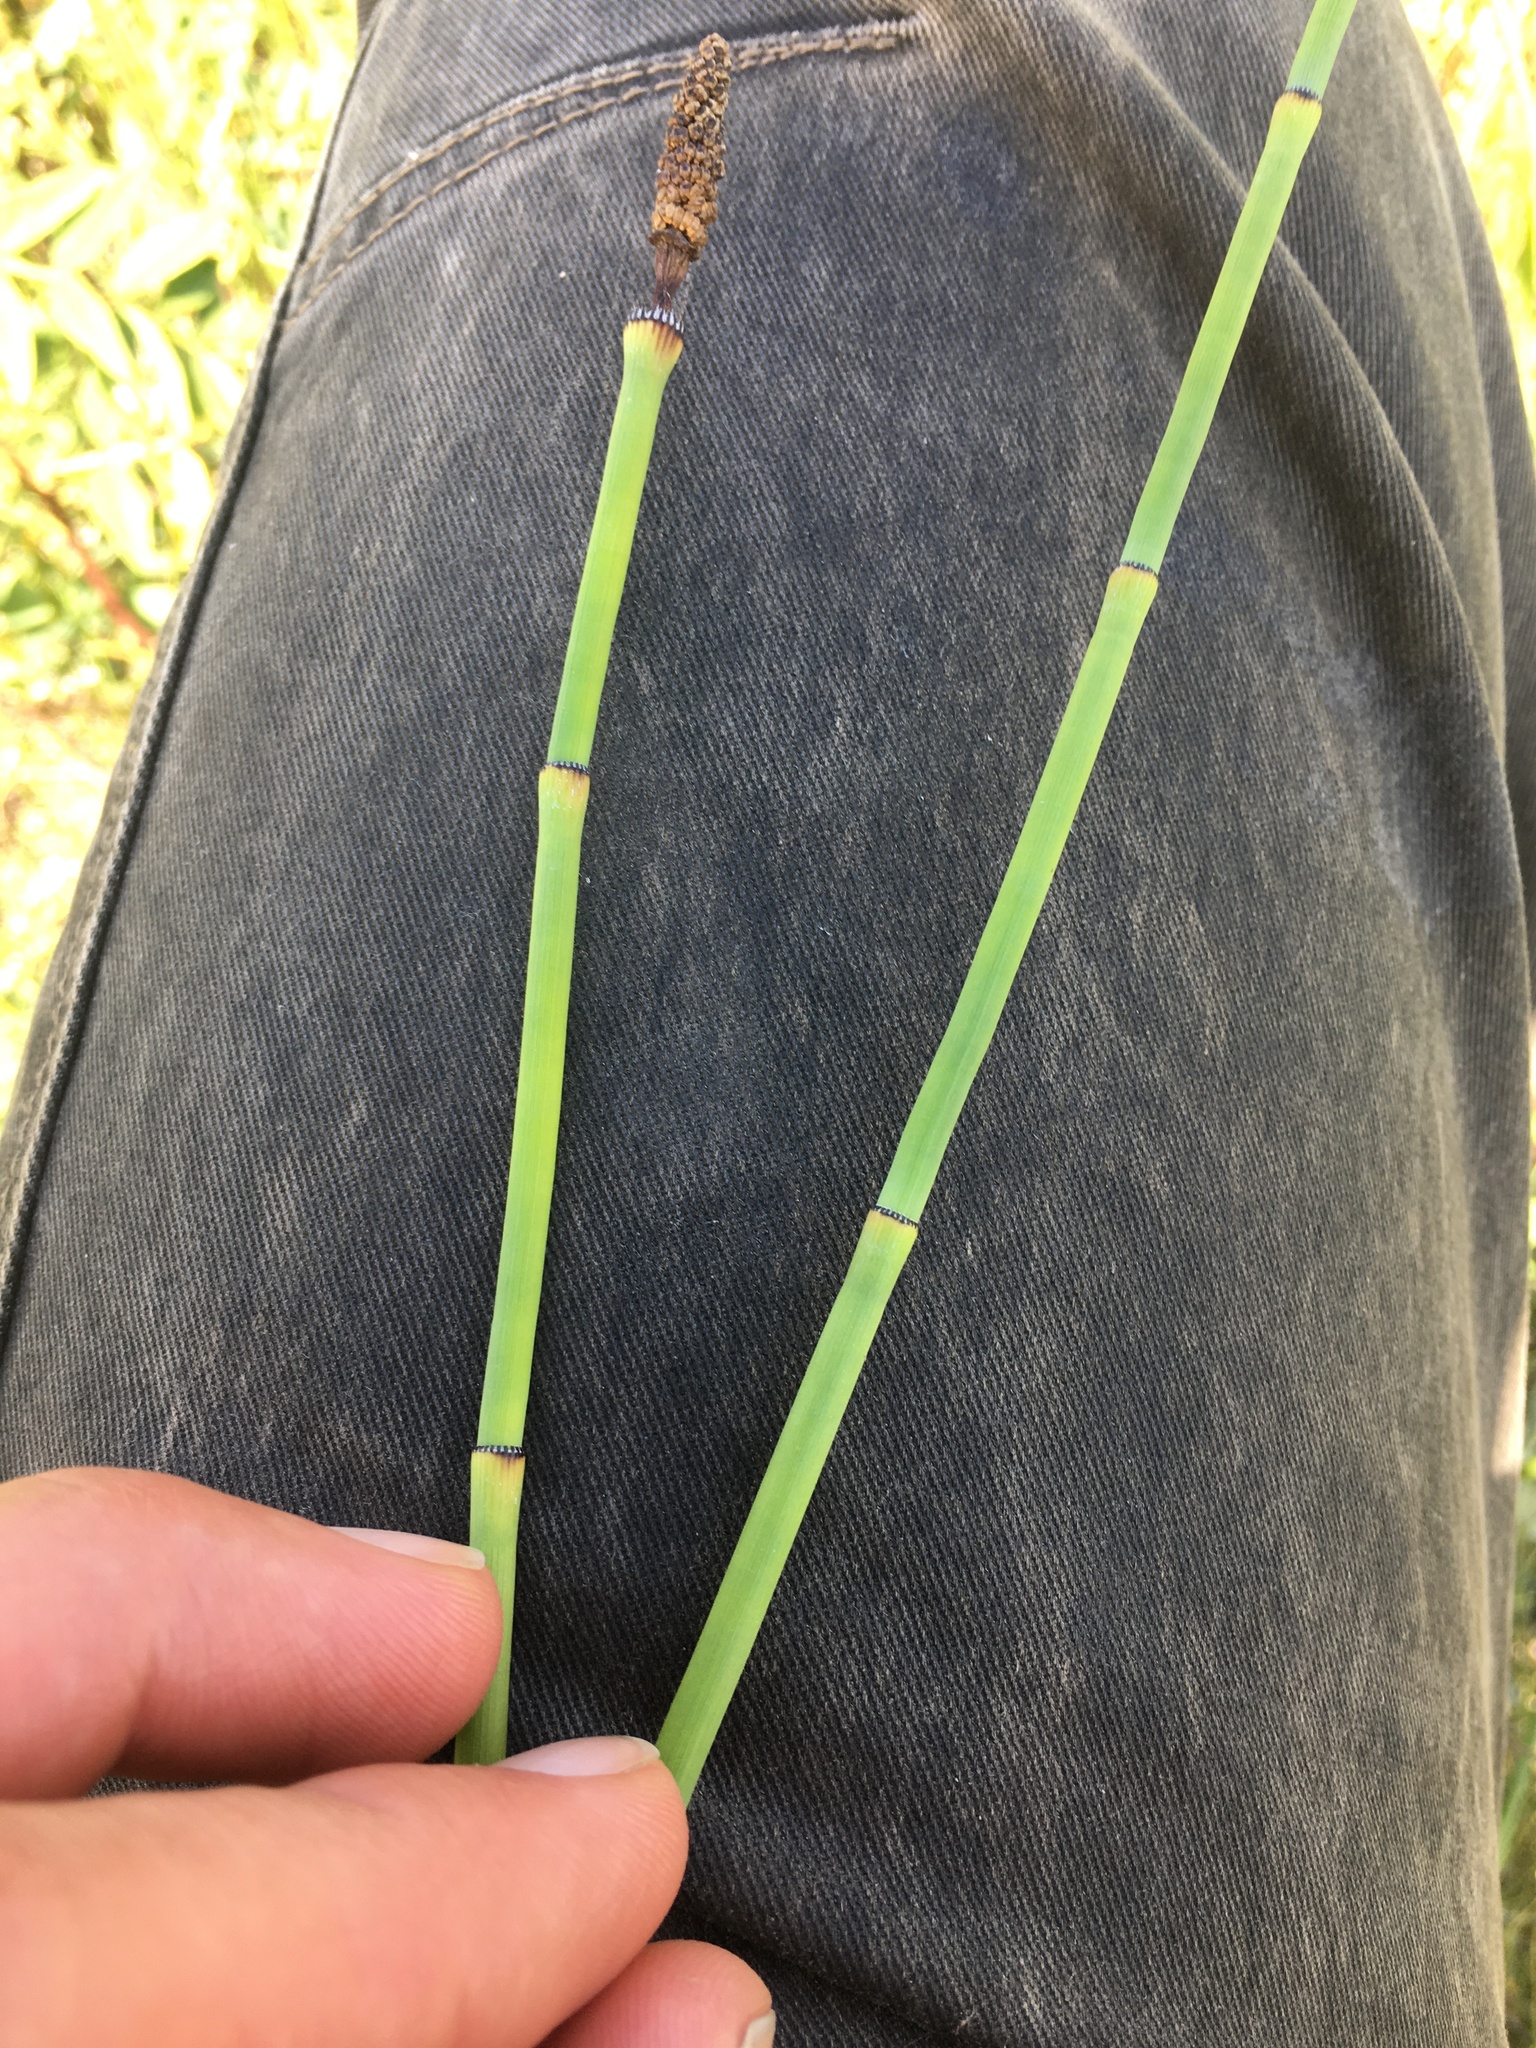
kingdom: Plantae
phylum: Tracheophyta
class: Polypodiopsida
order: Equisetales
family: Equisetaceae
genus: Equisetum
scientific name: Equisetum laevigatum
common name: Smooth scouring-rush
